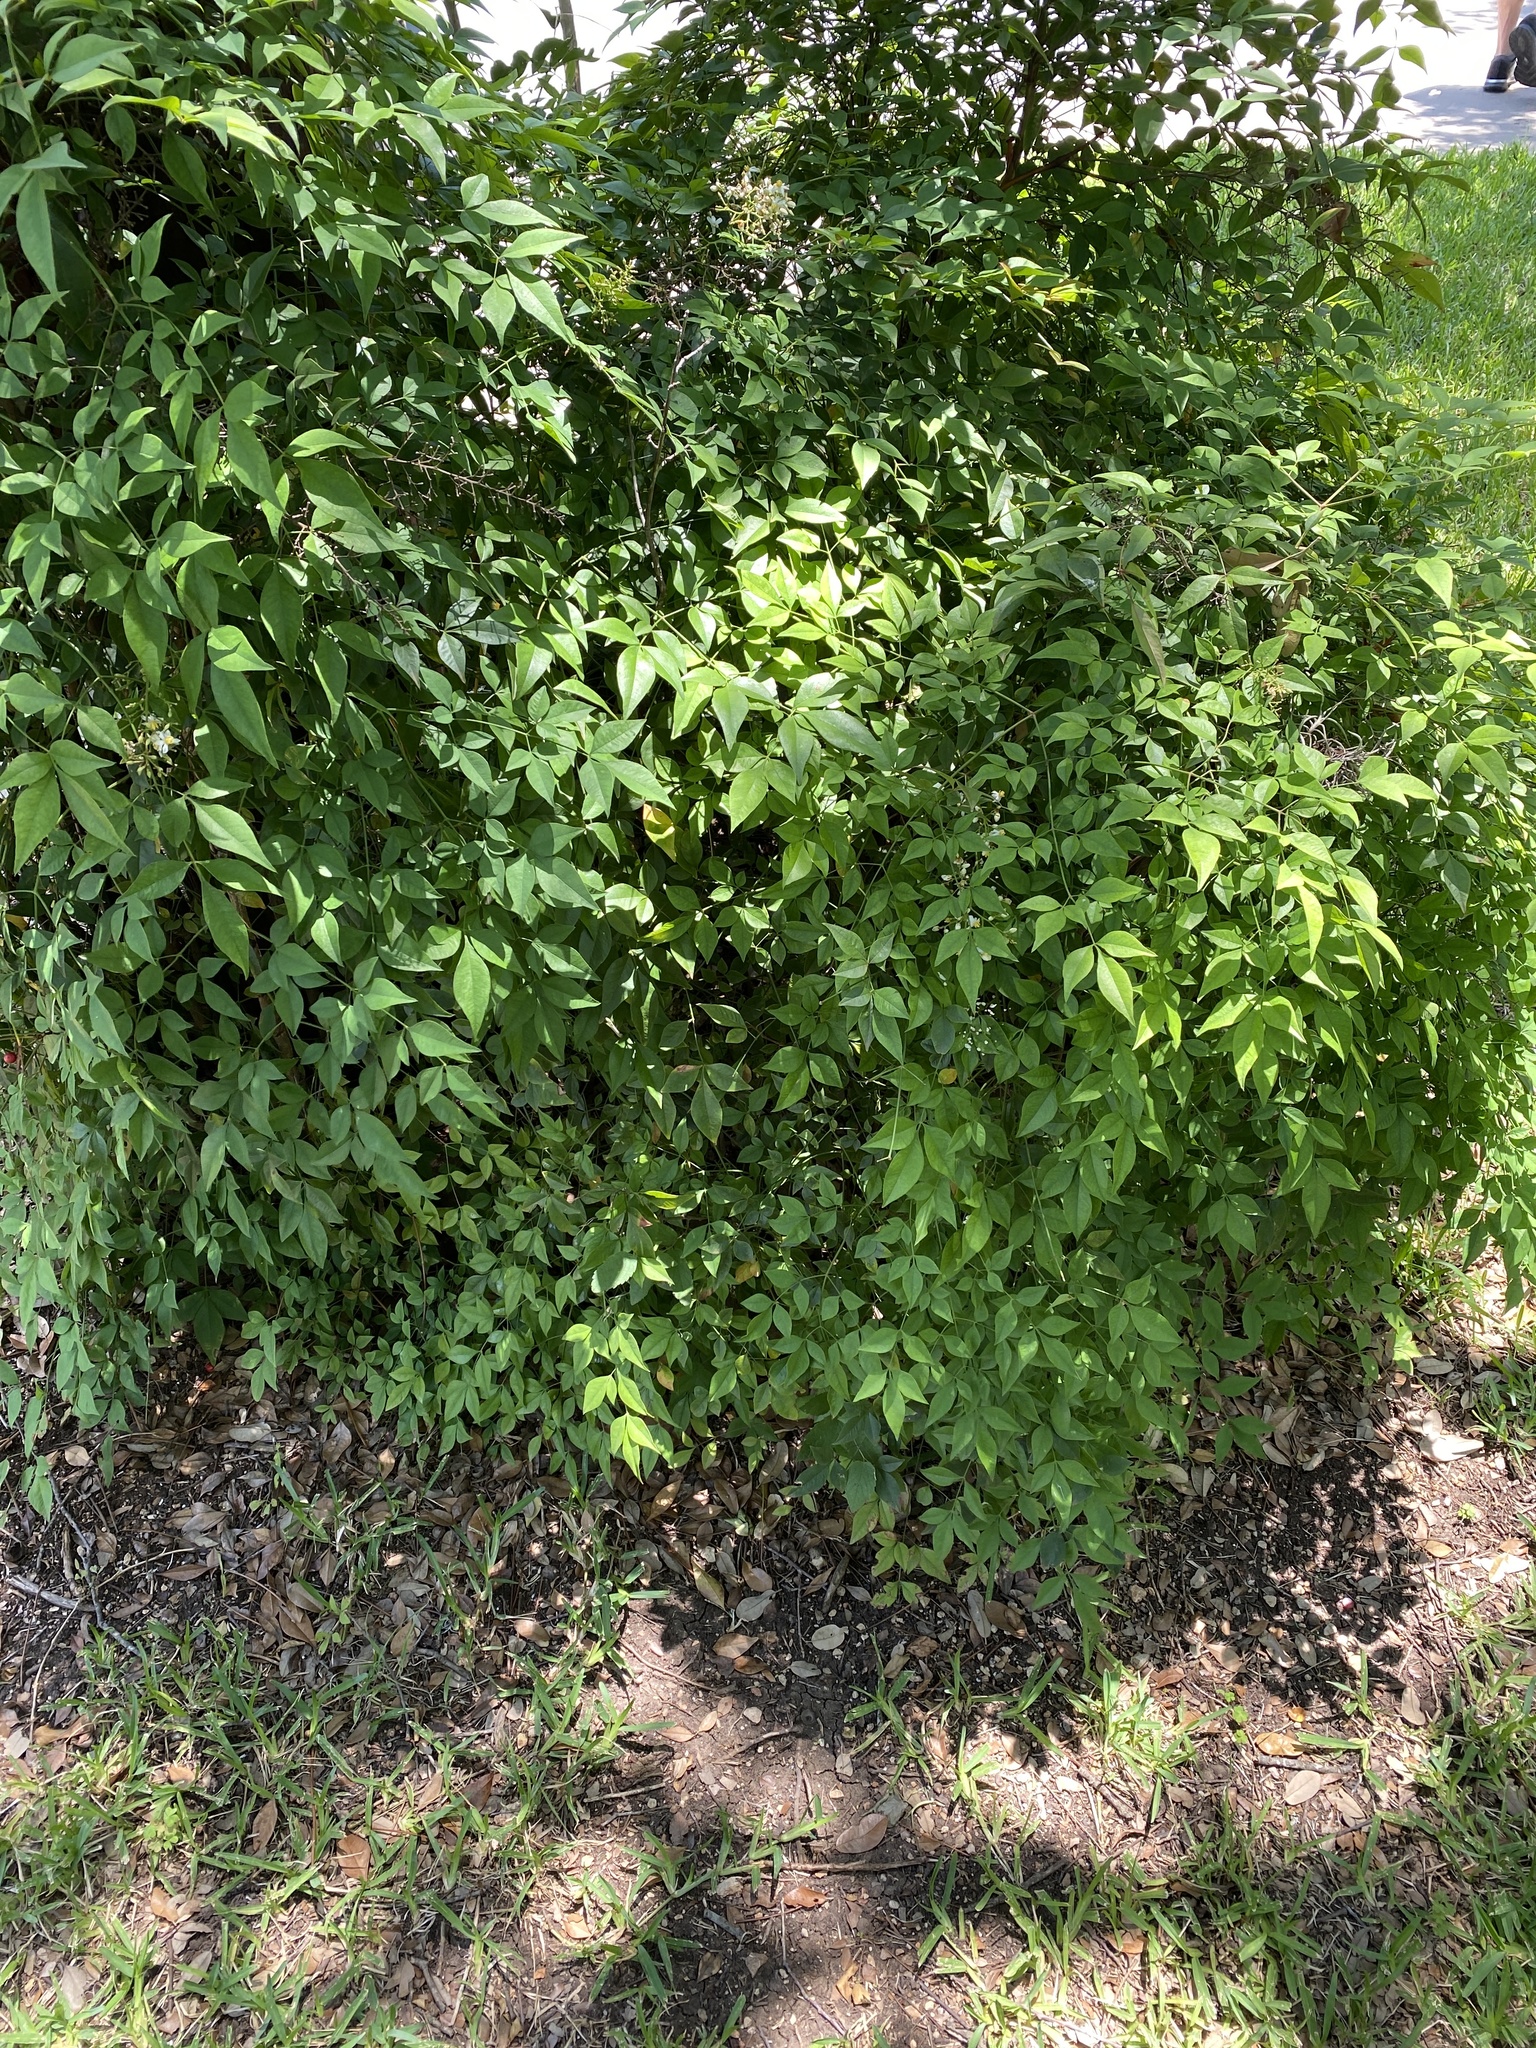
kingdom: Plantae
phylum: Tracheophyta
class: Magnoliopsida
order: Ranunculales
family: Berberidaceae
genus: Nandina
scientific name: Nandina domestica
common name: Sacred bamboo
